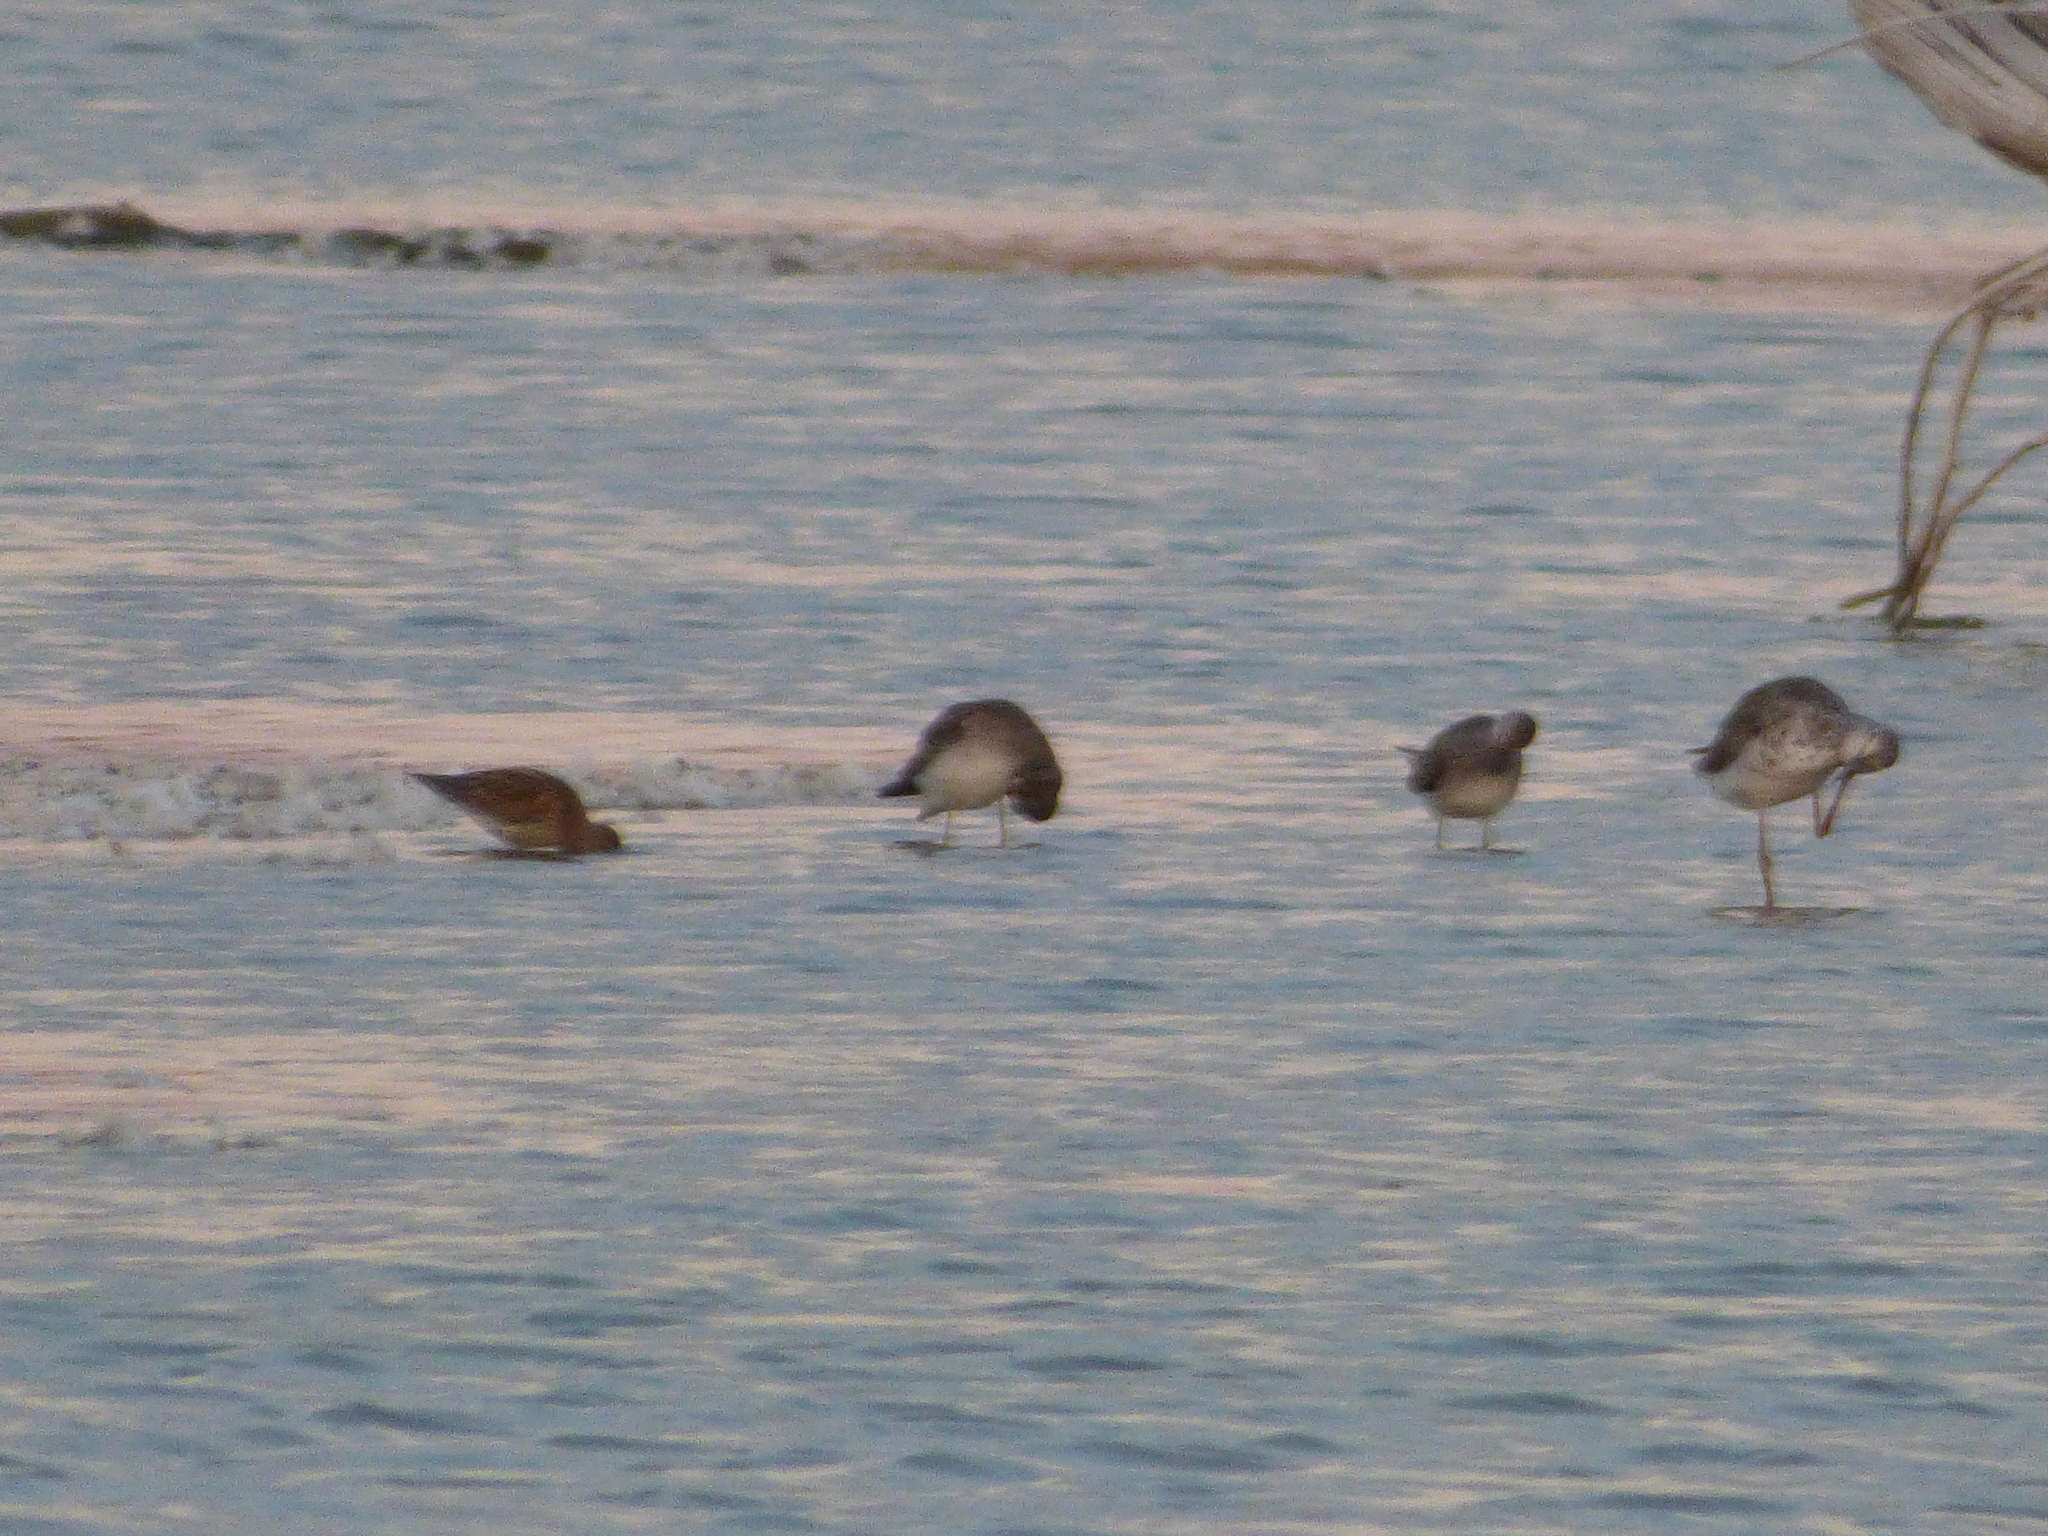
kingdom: Animalia
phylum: Chordata
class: Aves
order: Charadriiformes
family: Scolopacidae
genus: Tringa
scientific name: Tringa melanoleuca
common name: Greater yellowlegs
